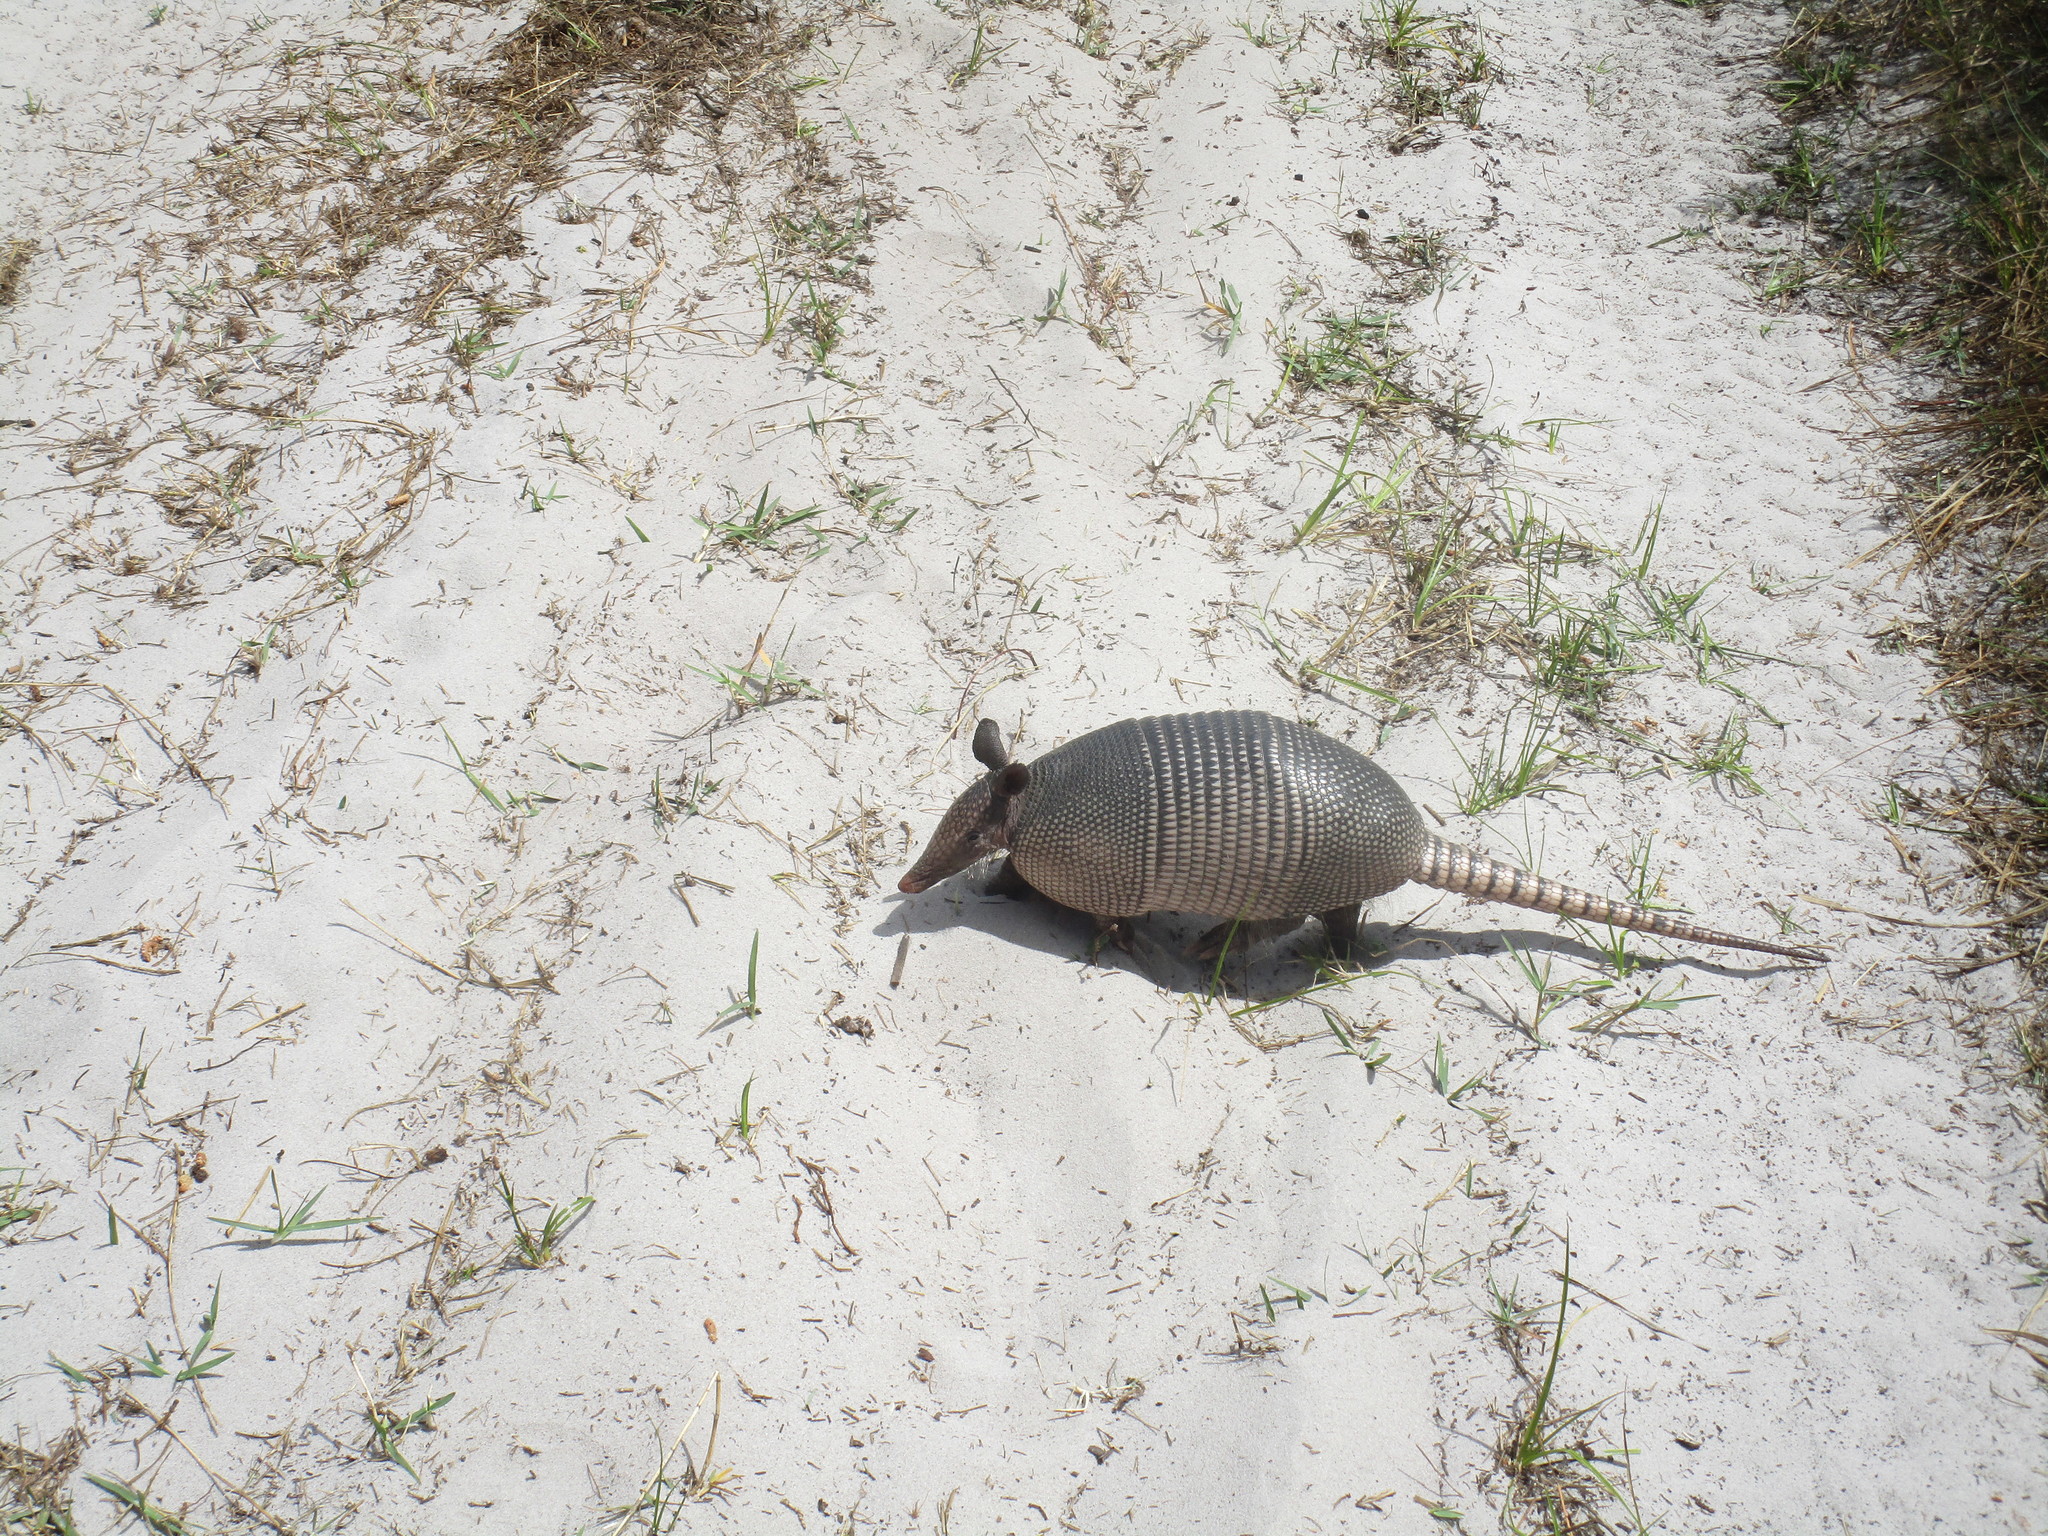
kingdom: Animalia
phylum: Chordata
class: Mammalia
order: Cingulata
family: Dasypodidae
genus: Dasypus
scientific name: Dasypus novemcinctus
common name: Nine-banded armadillo
